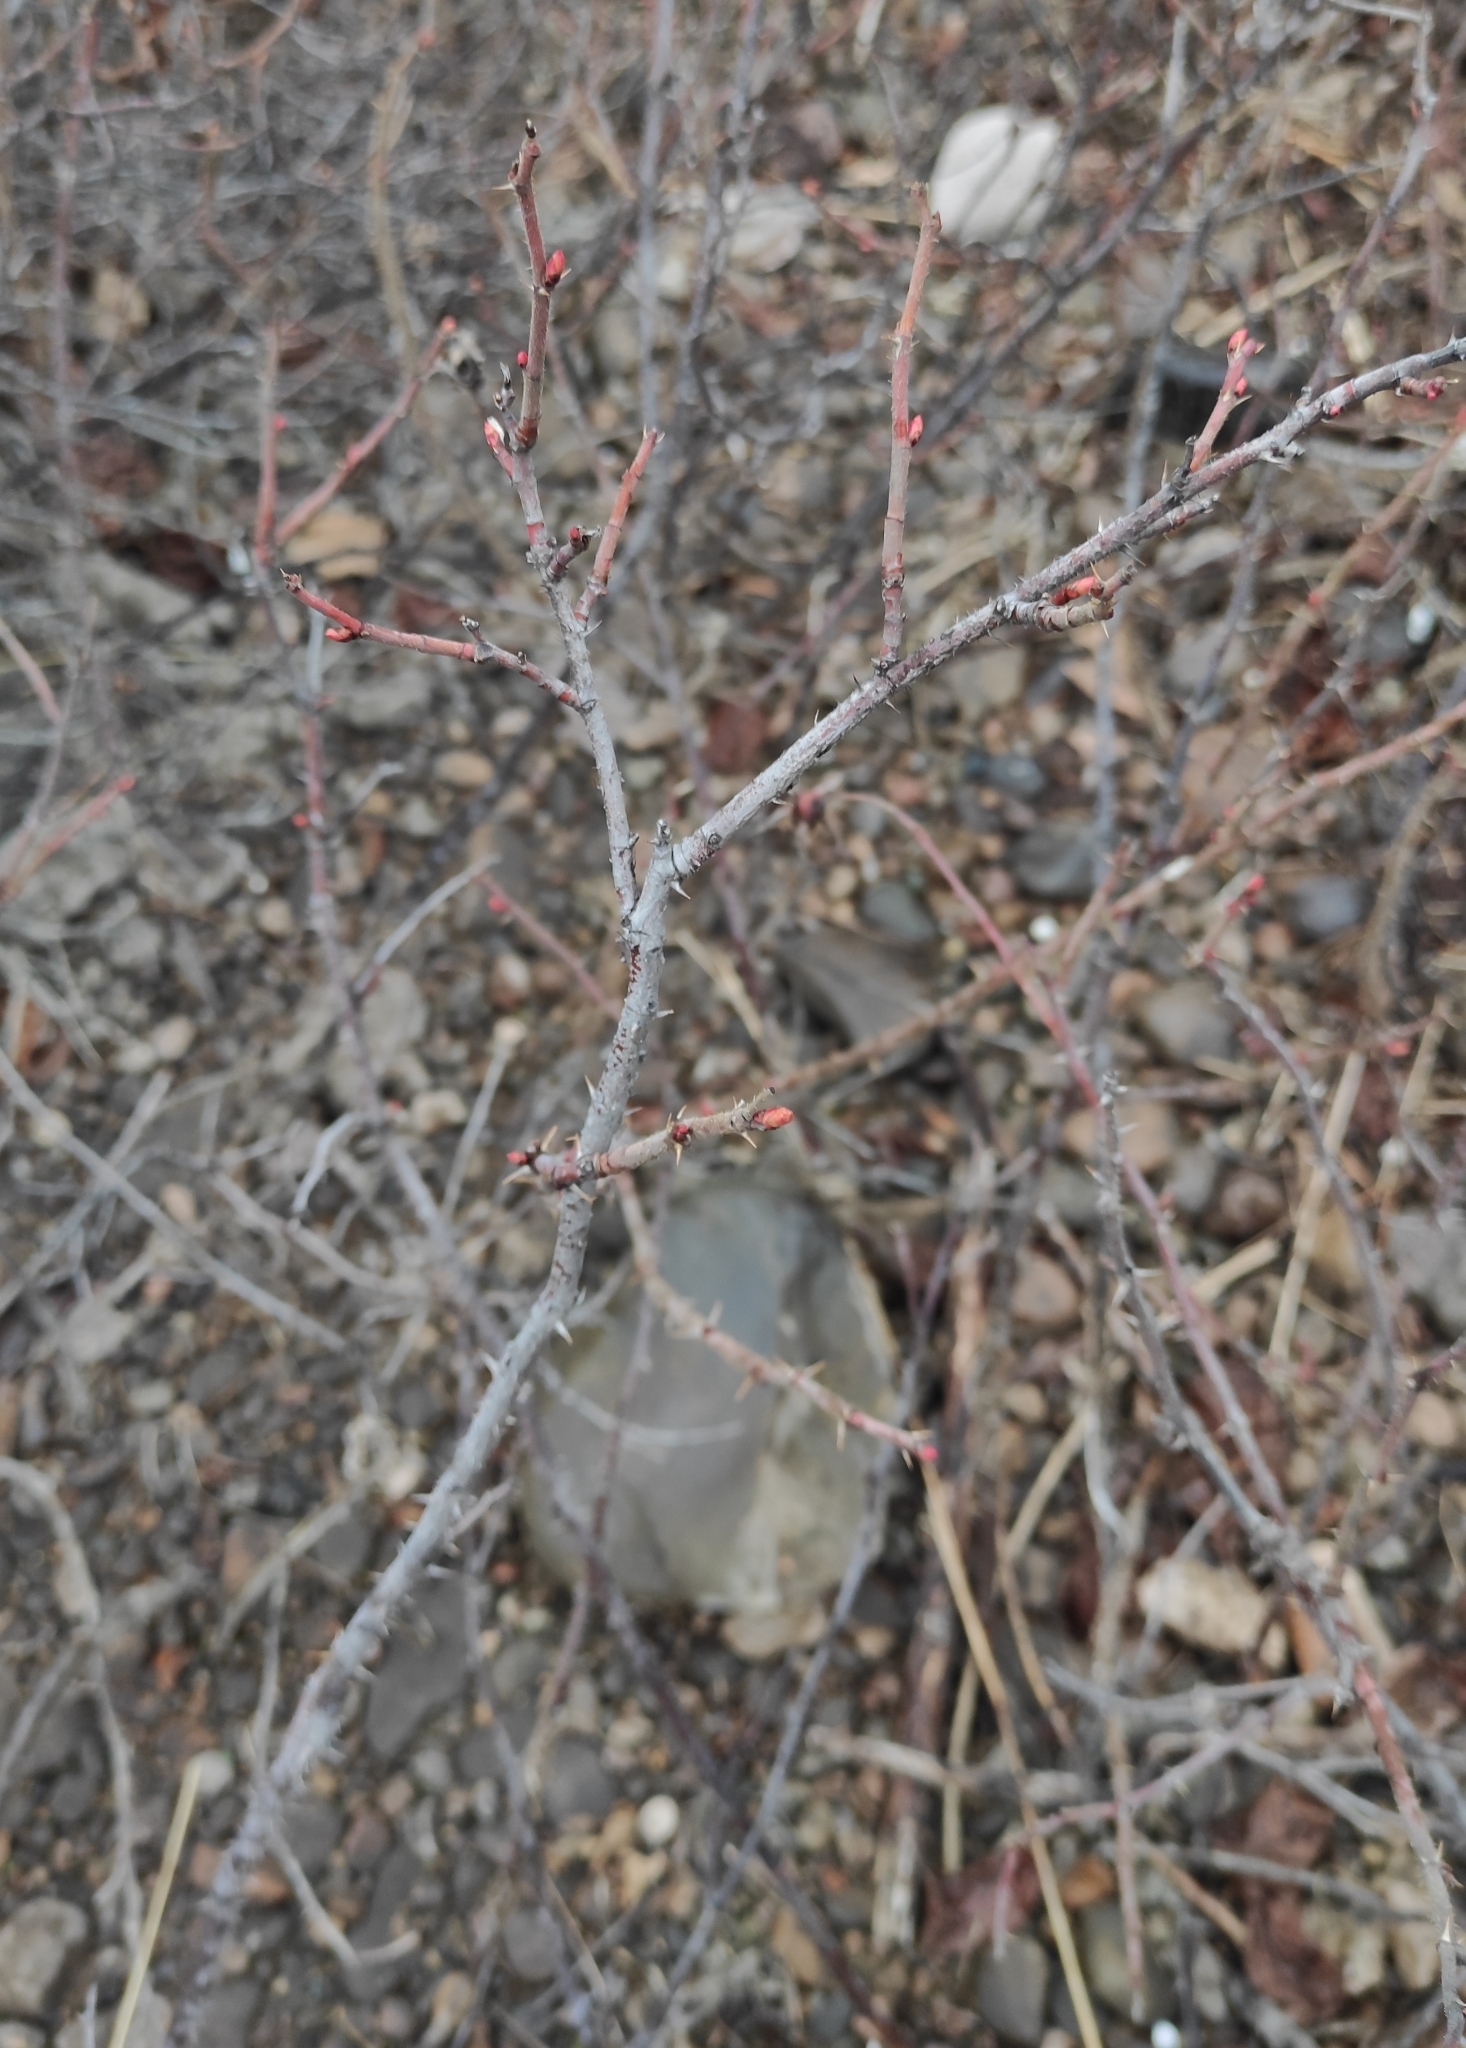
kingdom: Plantae
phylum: Tracheophyta
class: Magnoliopsida
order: Rosales
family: Rosaceae
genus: Rosa
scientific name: Rosa rugosa
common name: Japanese rose
